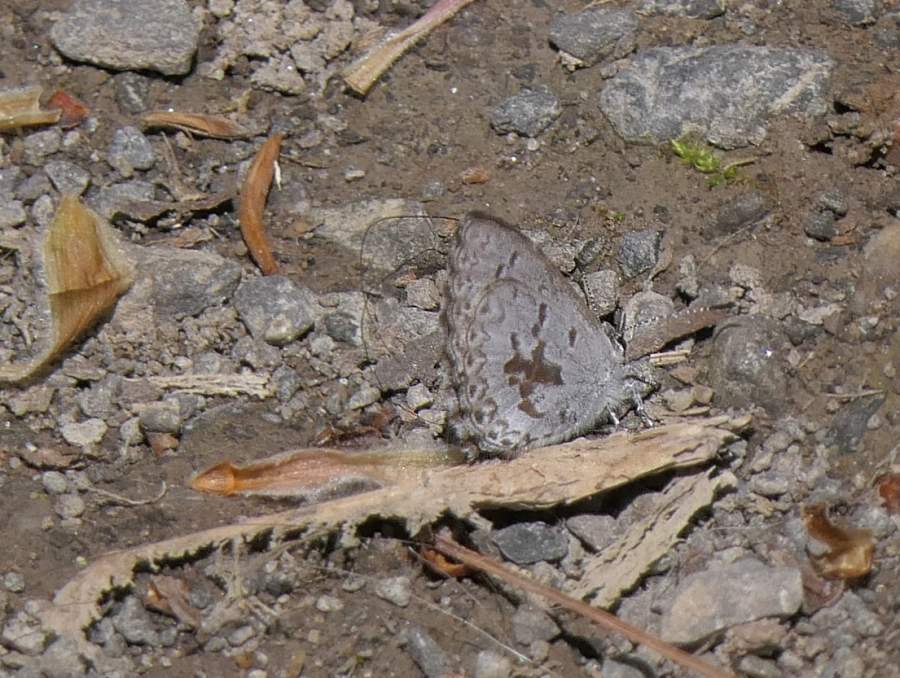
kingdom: Animalia
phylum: Arthropoda
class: Insecta
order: Lepidoptera
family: Lycaenidae
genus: Celastrina
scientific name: Celastrina lucia
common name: Lucia azure
